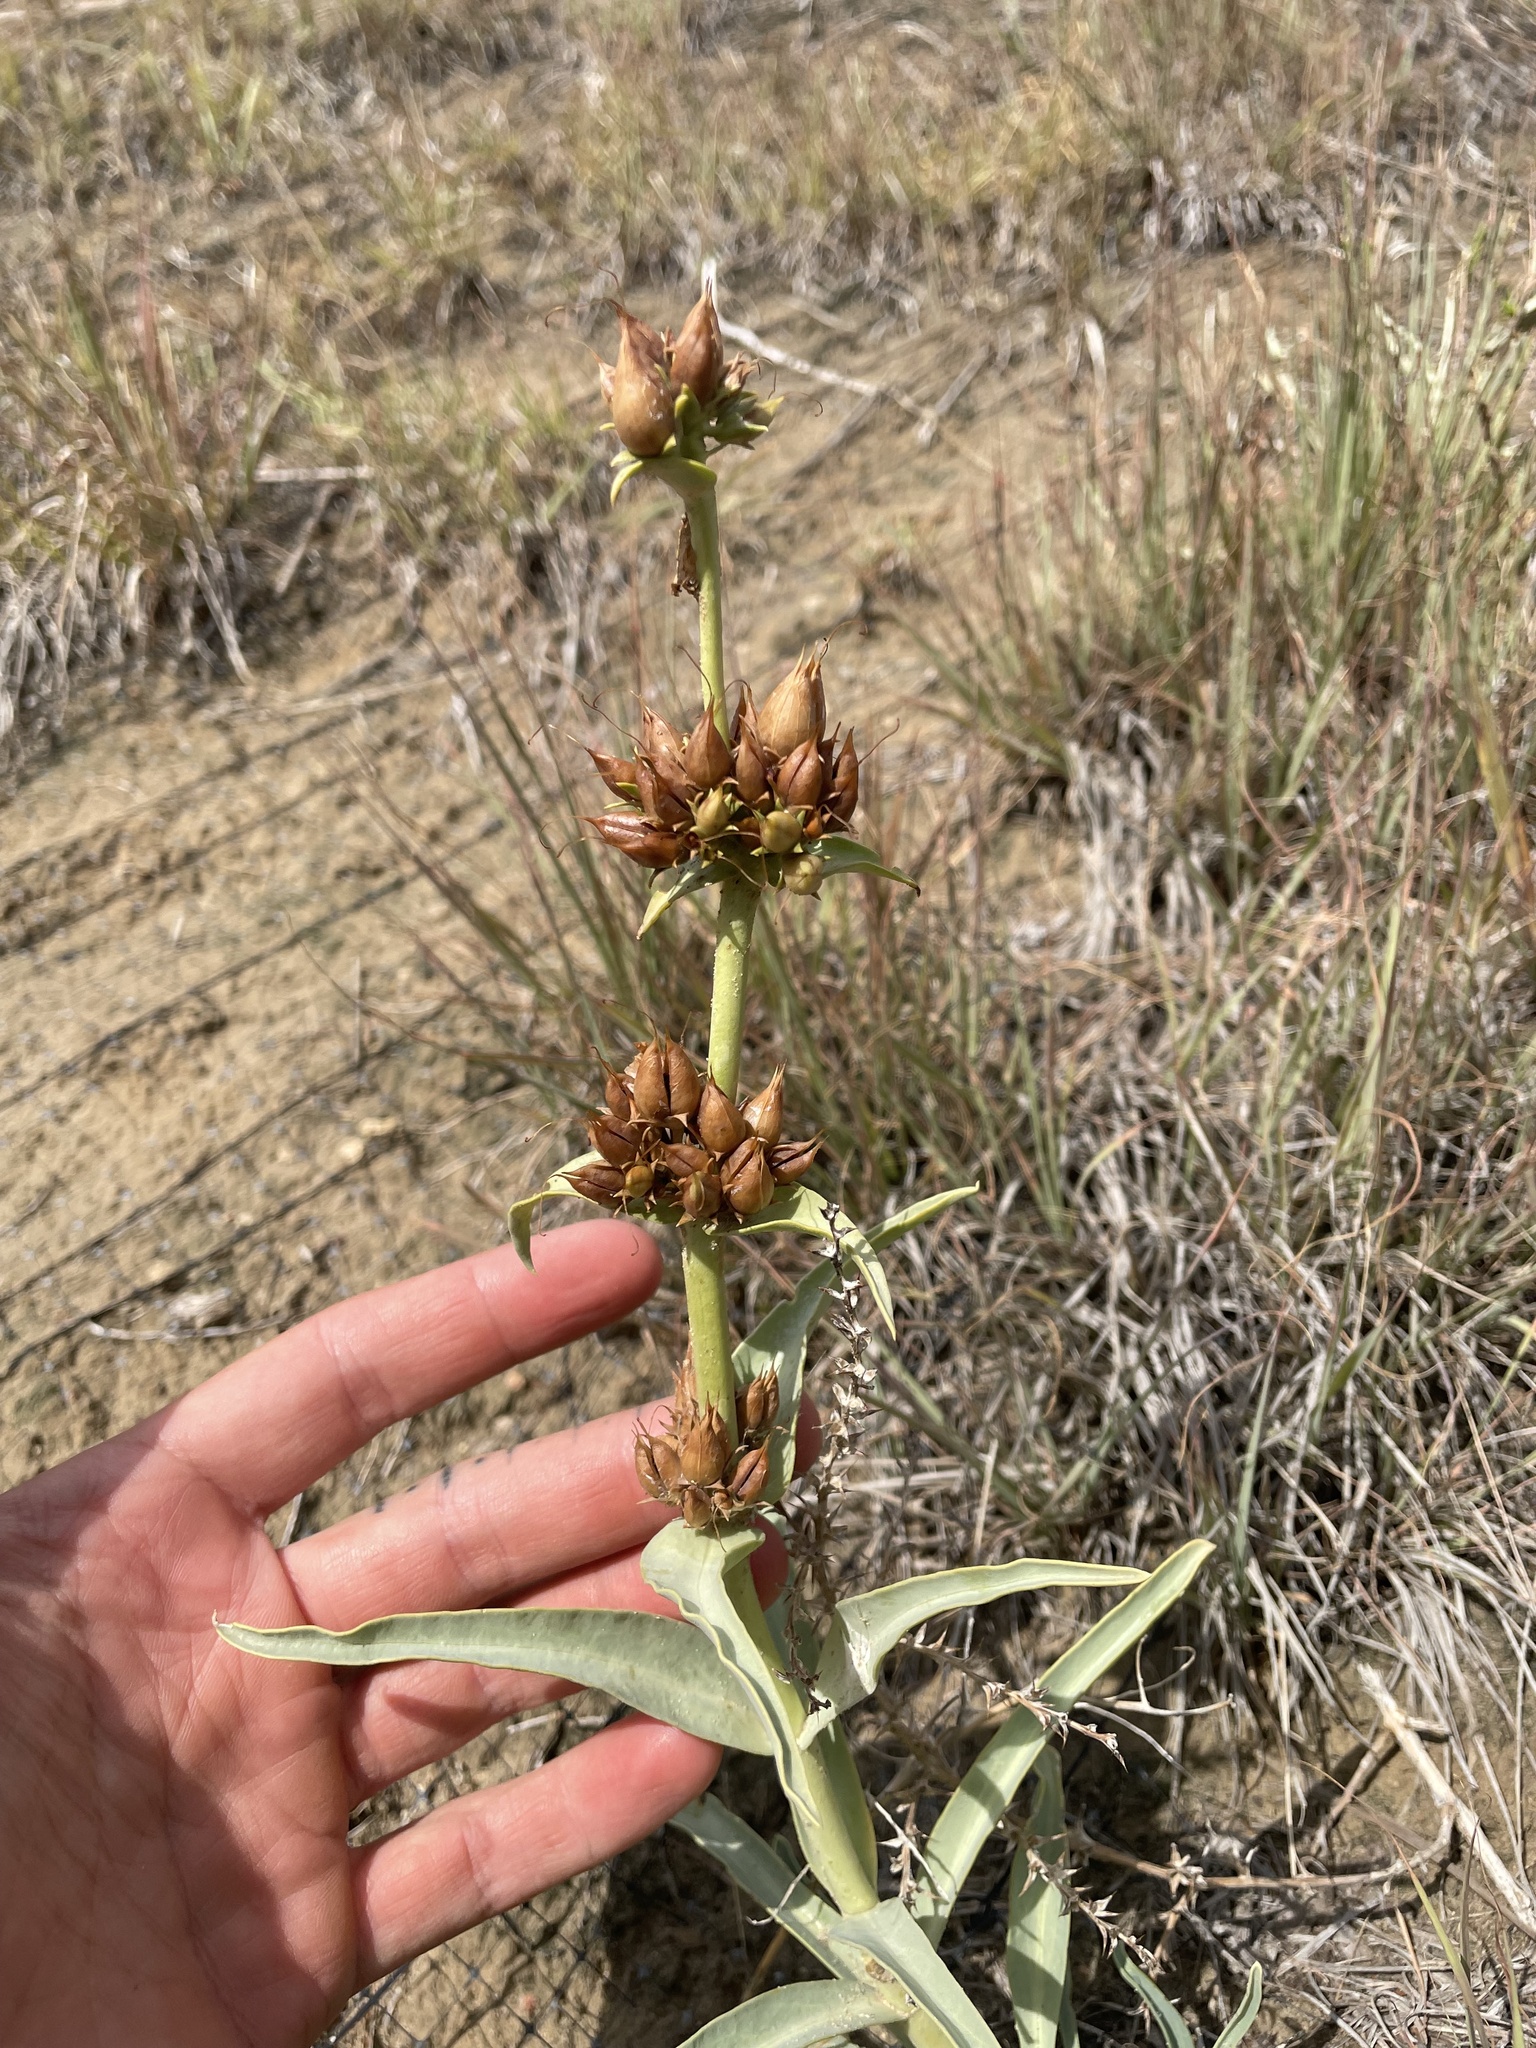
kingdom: Plantae
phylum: Tracheophyta
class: Magnoliopsida
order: Lamiales
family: Plantaginaceae
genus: Penstemon
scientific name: Penstemon angustifolius
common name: Narrow beardtongue
